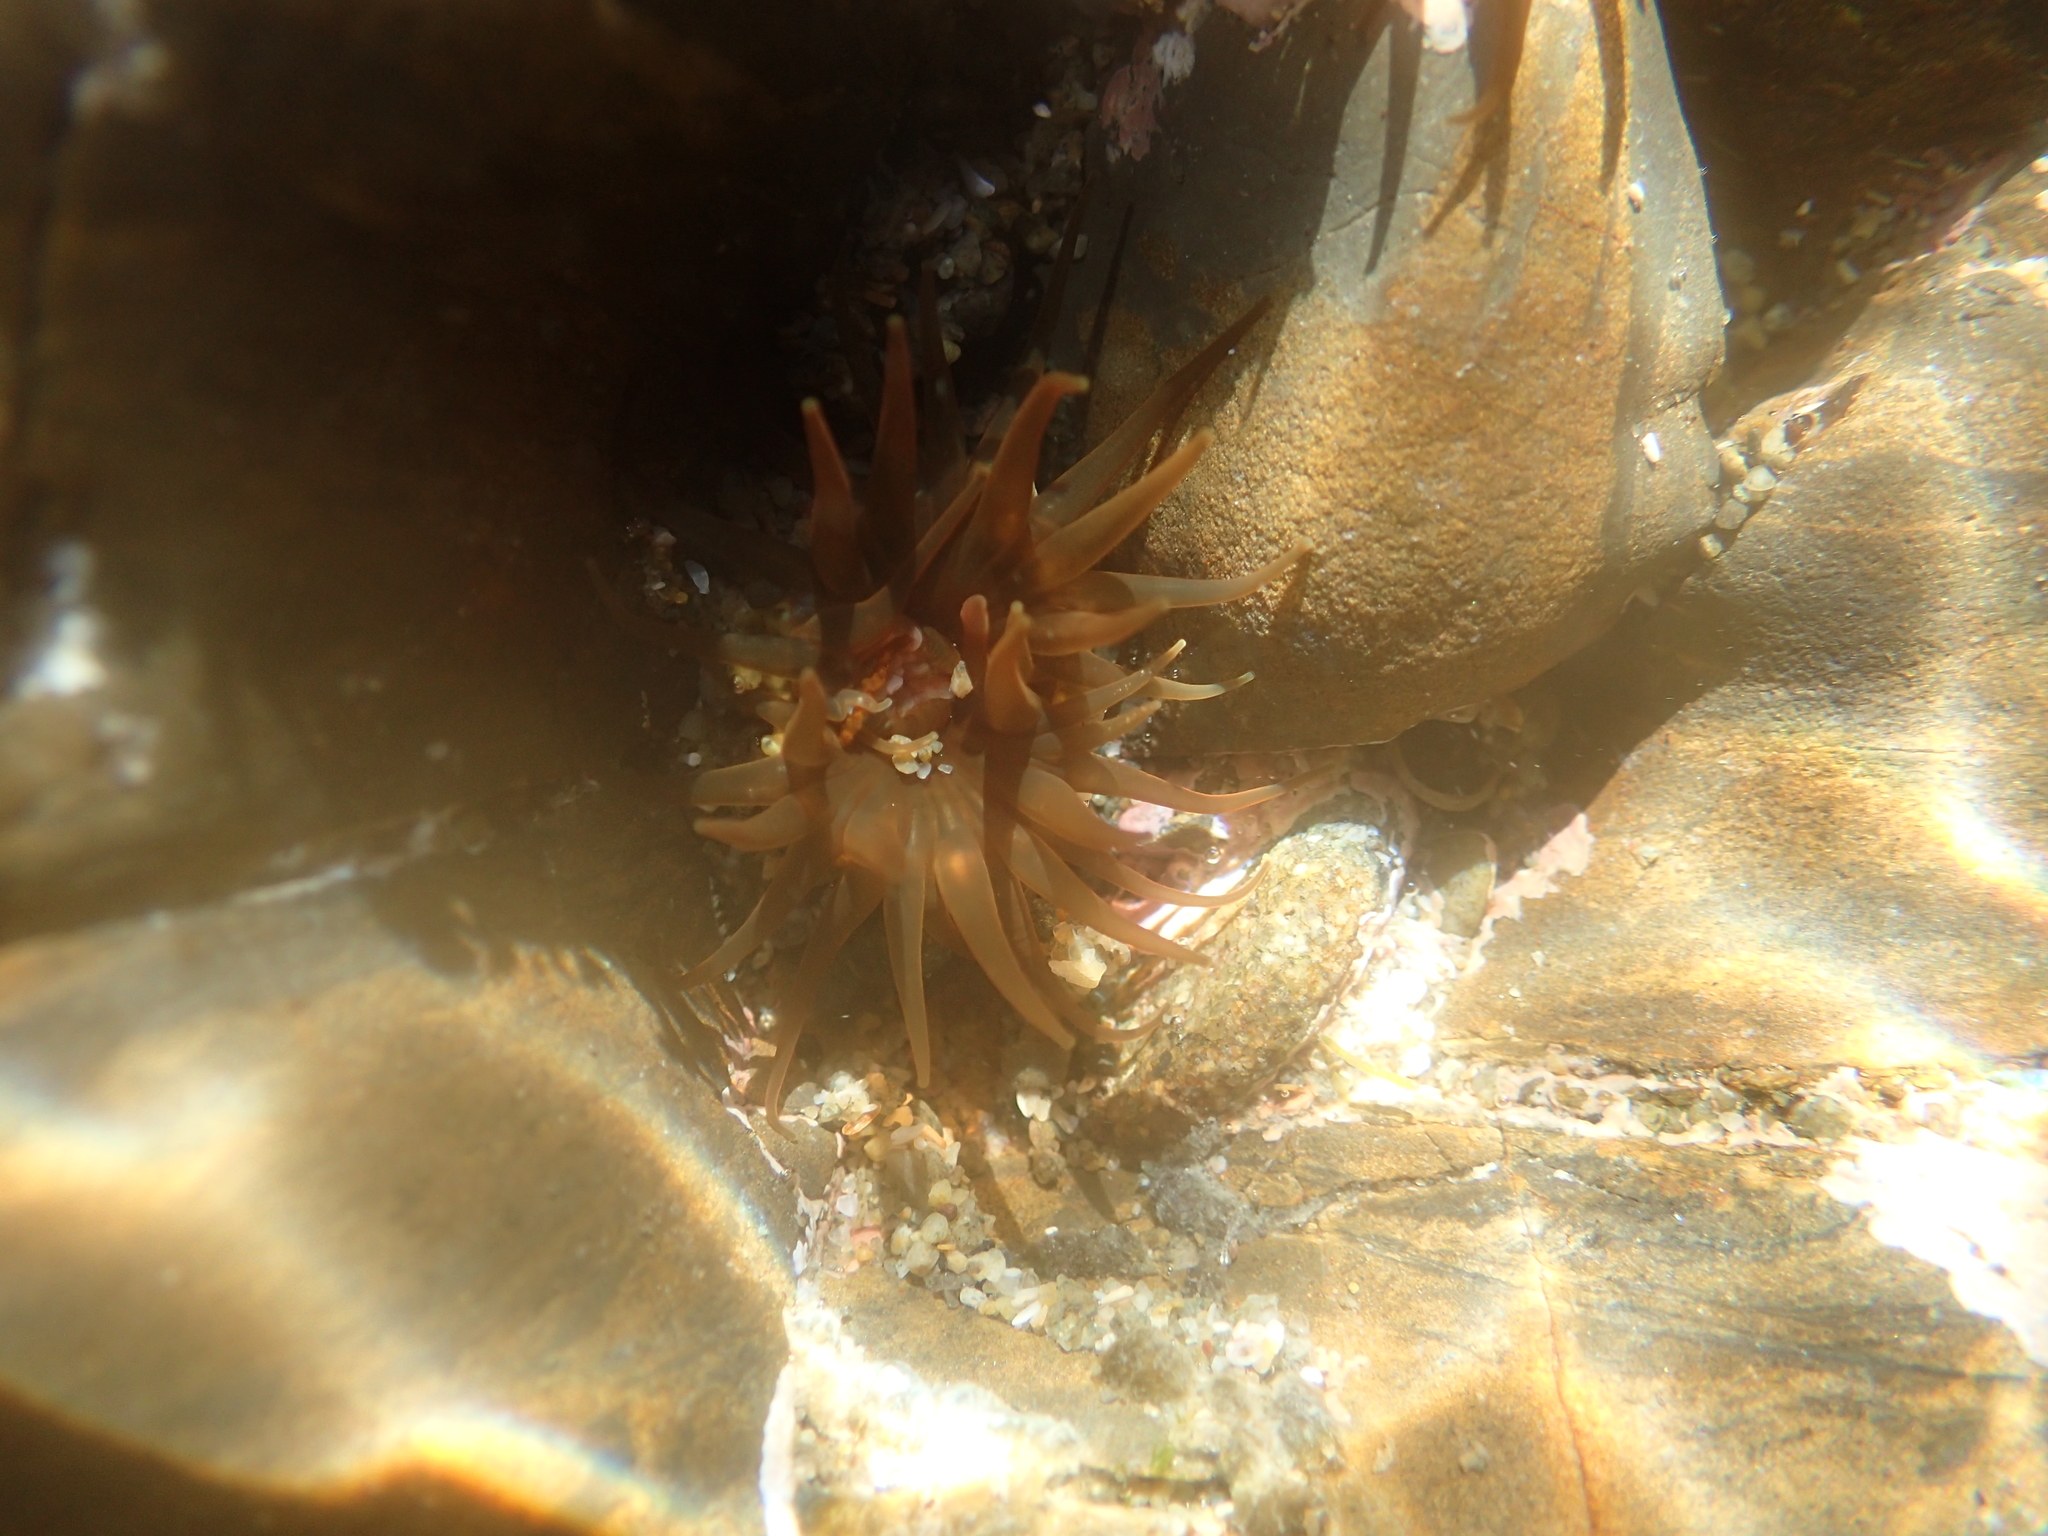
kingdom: Animalia
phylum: Cnidaria
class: Anthozoa
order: Actiniaria
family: Actiniidae
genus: Isactinia
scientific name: Isactinia olivacea
